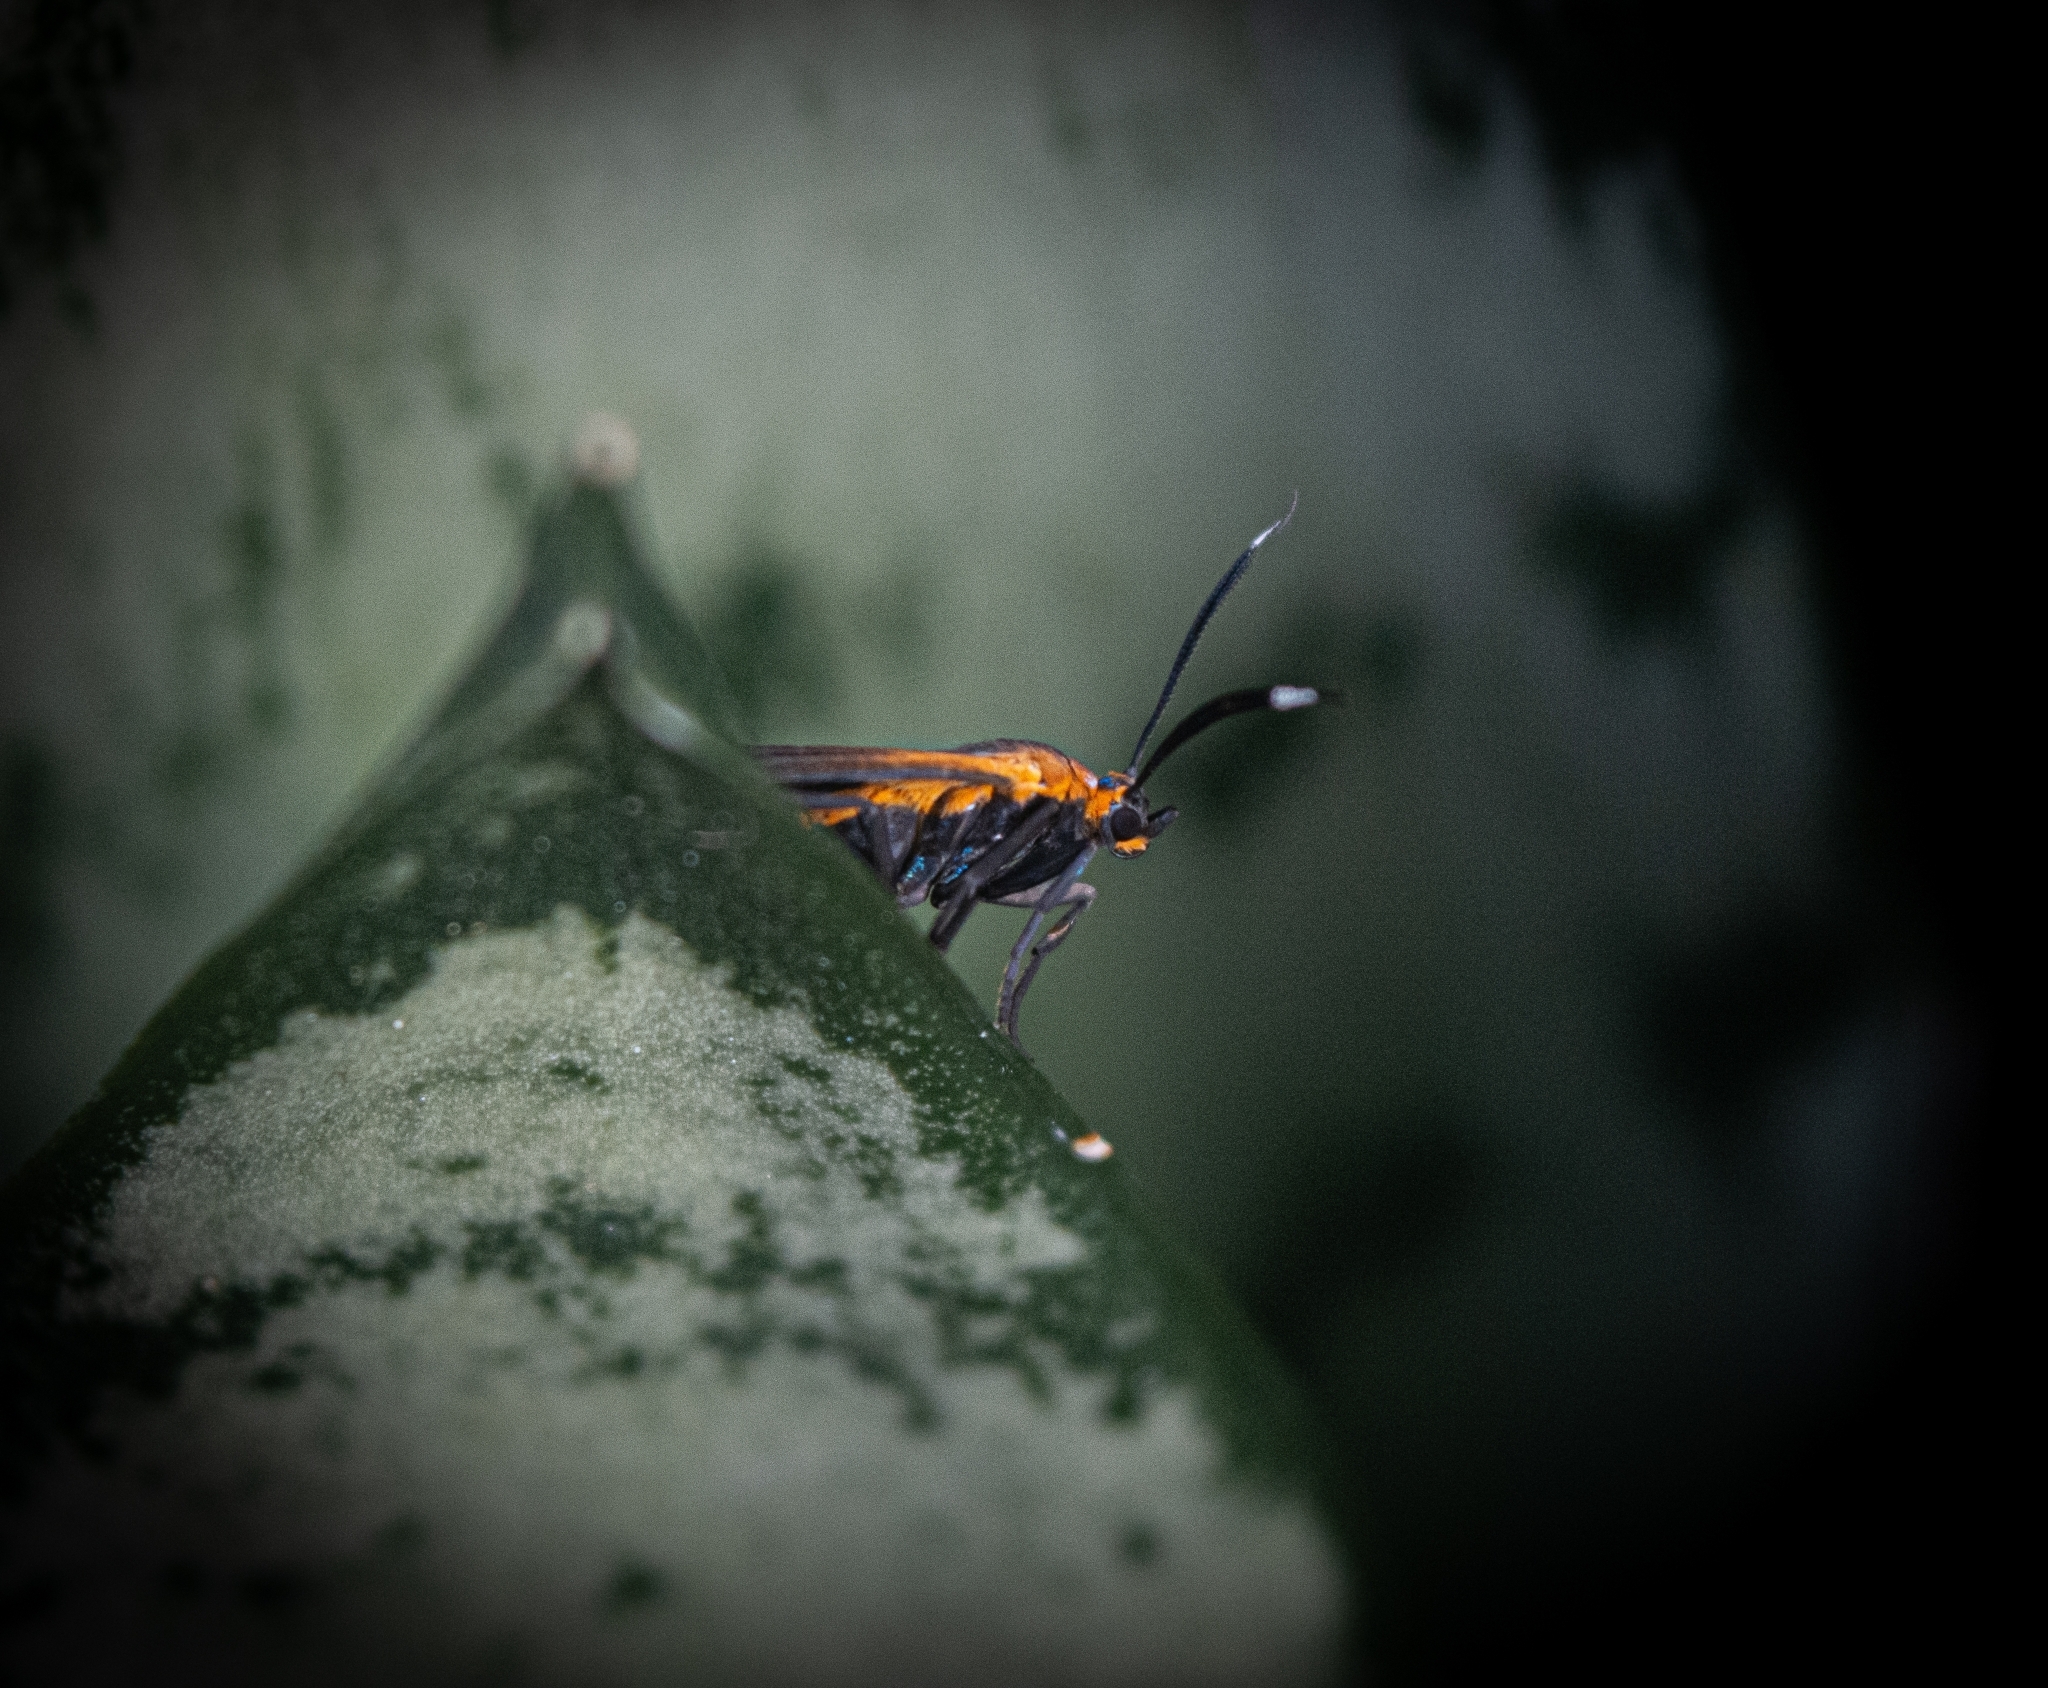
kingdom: Animalia
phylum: Arthropoda
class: Insecta
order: Lepidoptera
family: Erebidae
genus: Dycladia
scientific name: Dycladia lucetius
